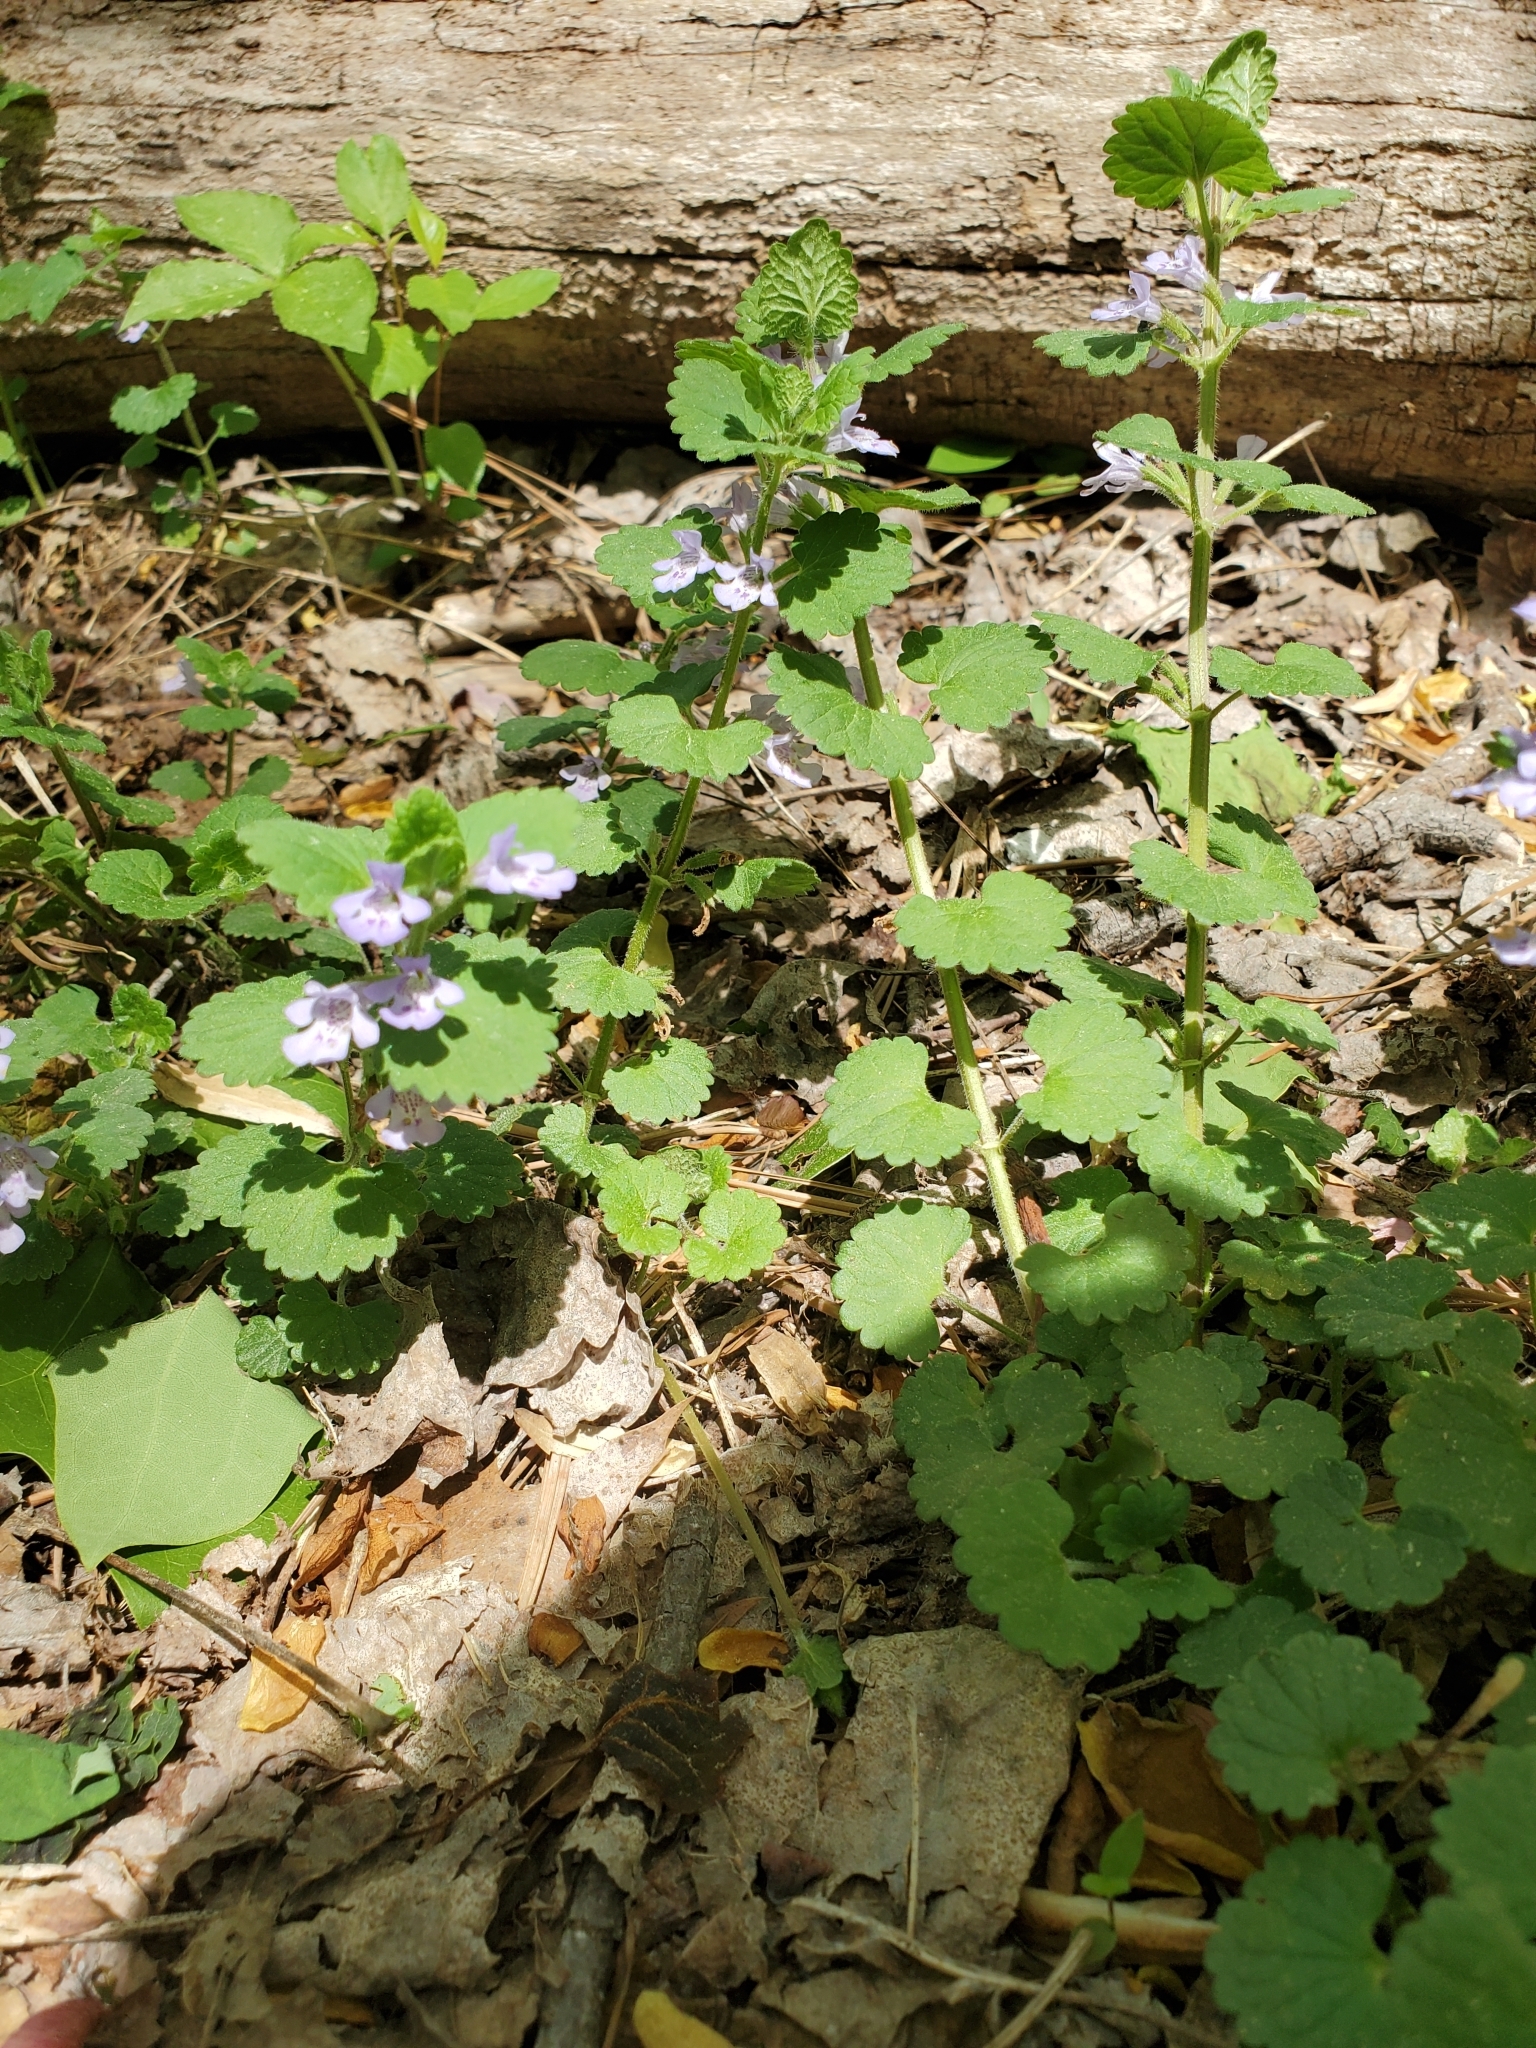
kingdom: Plantae
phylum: Tracheophyta
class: Magnoliopsida
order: Lamiales
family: Lamiaceae
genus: Glechoma
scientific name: Glechoma hederacea
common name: Ground ivy
